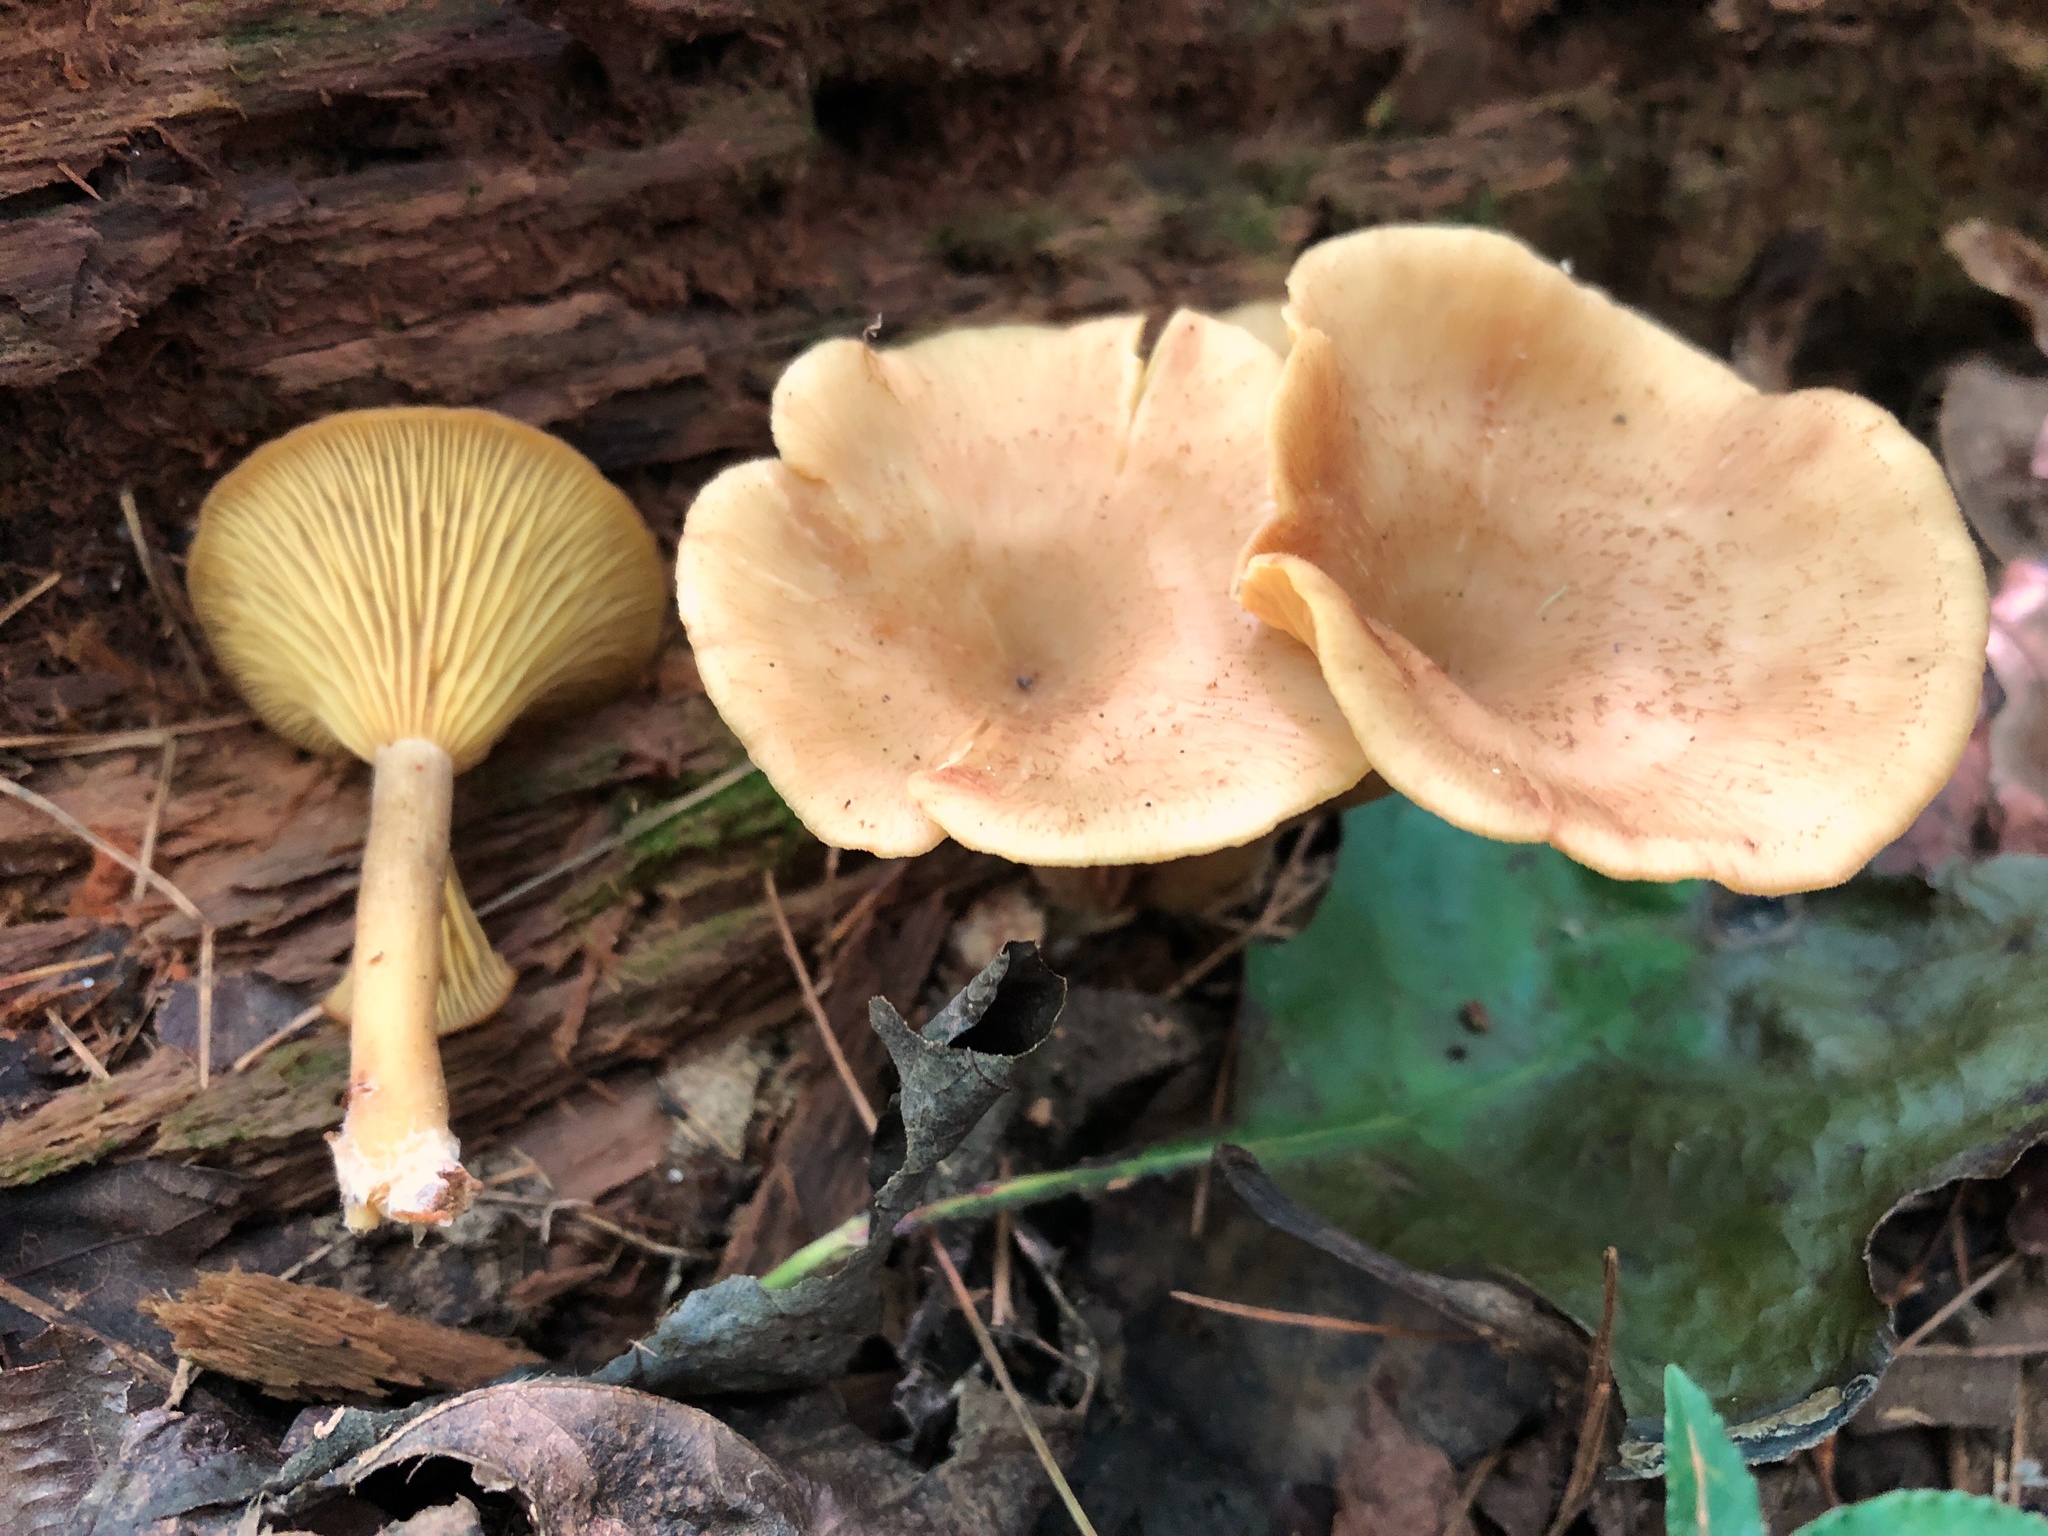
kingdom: Fungi
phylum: Basidiomycota
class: Agaricomycetes
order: Agaricales
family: Hygrophoraceae
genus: Pseudoarmillariella
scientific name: Pseudoarmillariella ectypoides
